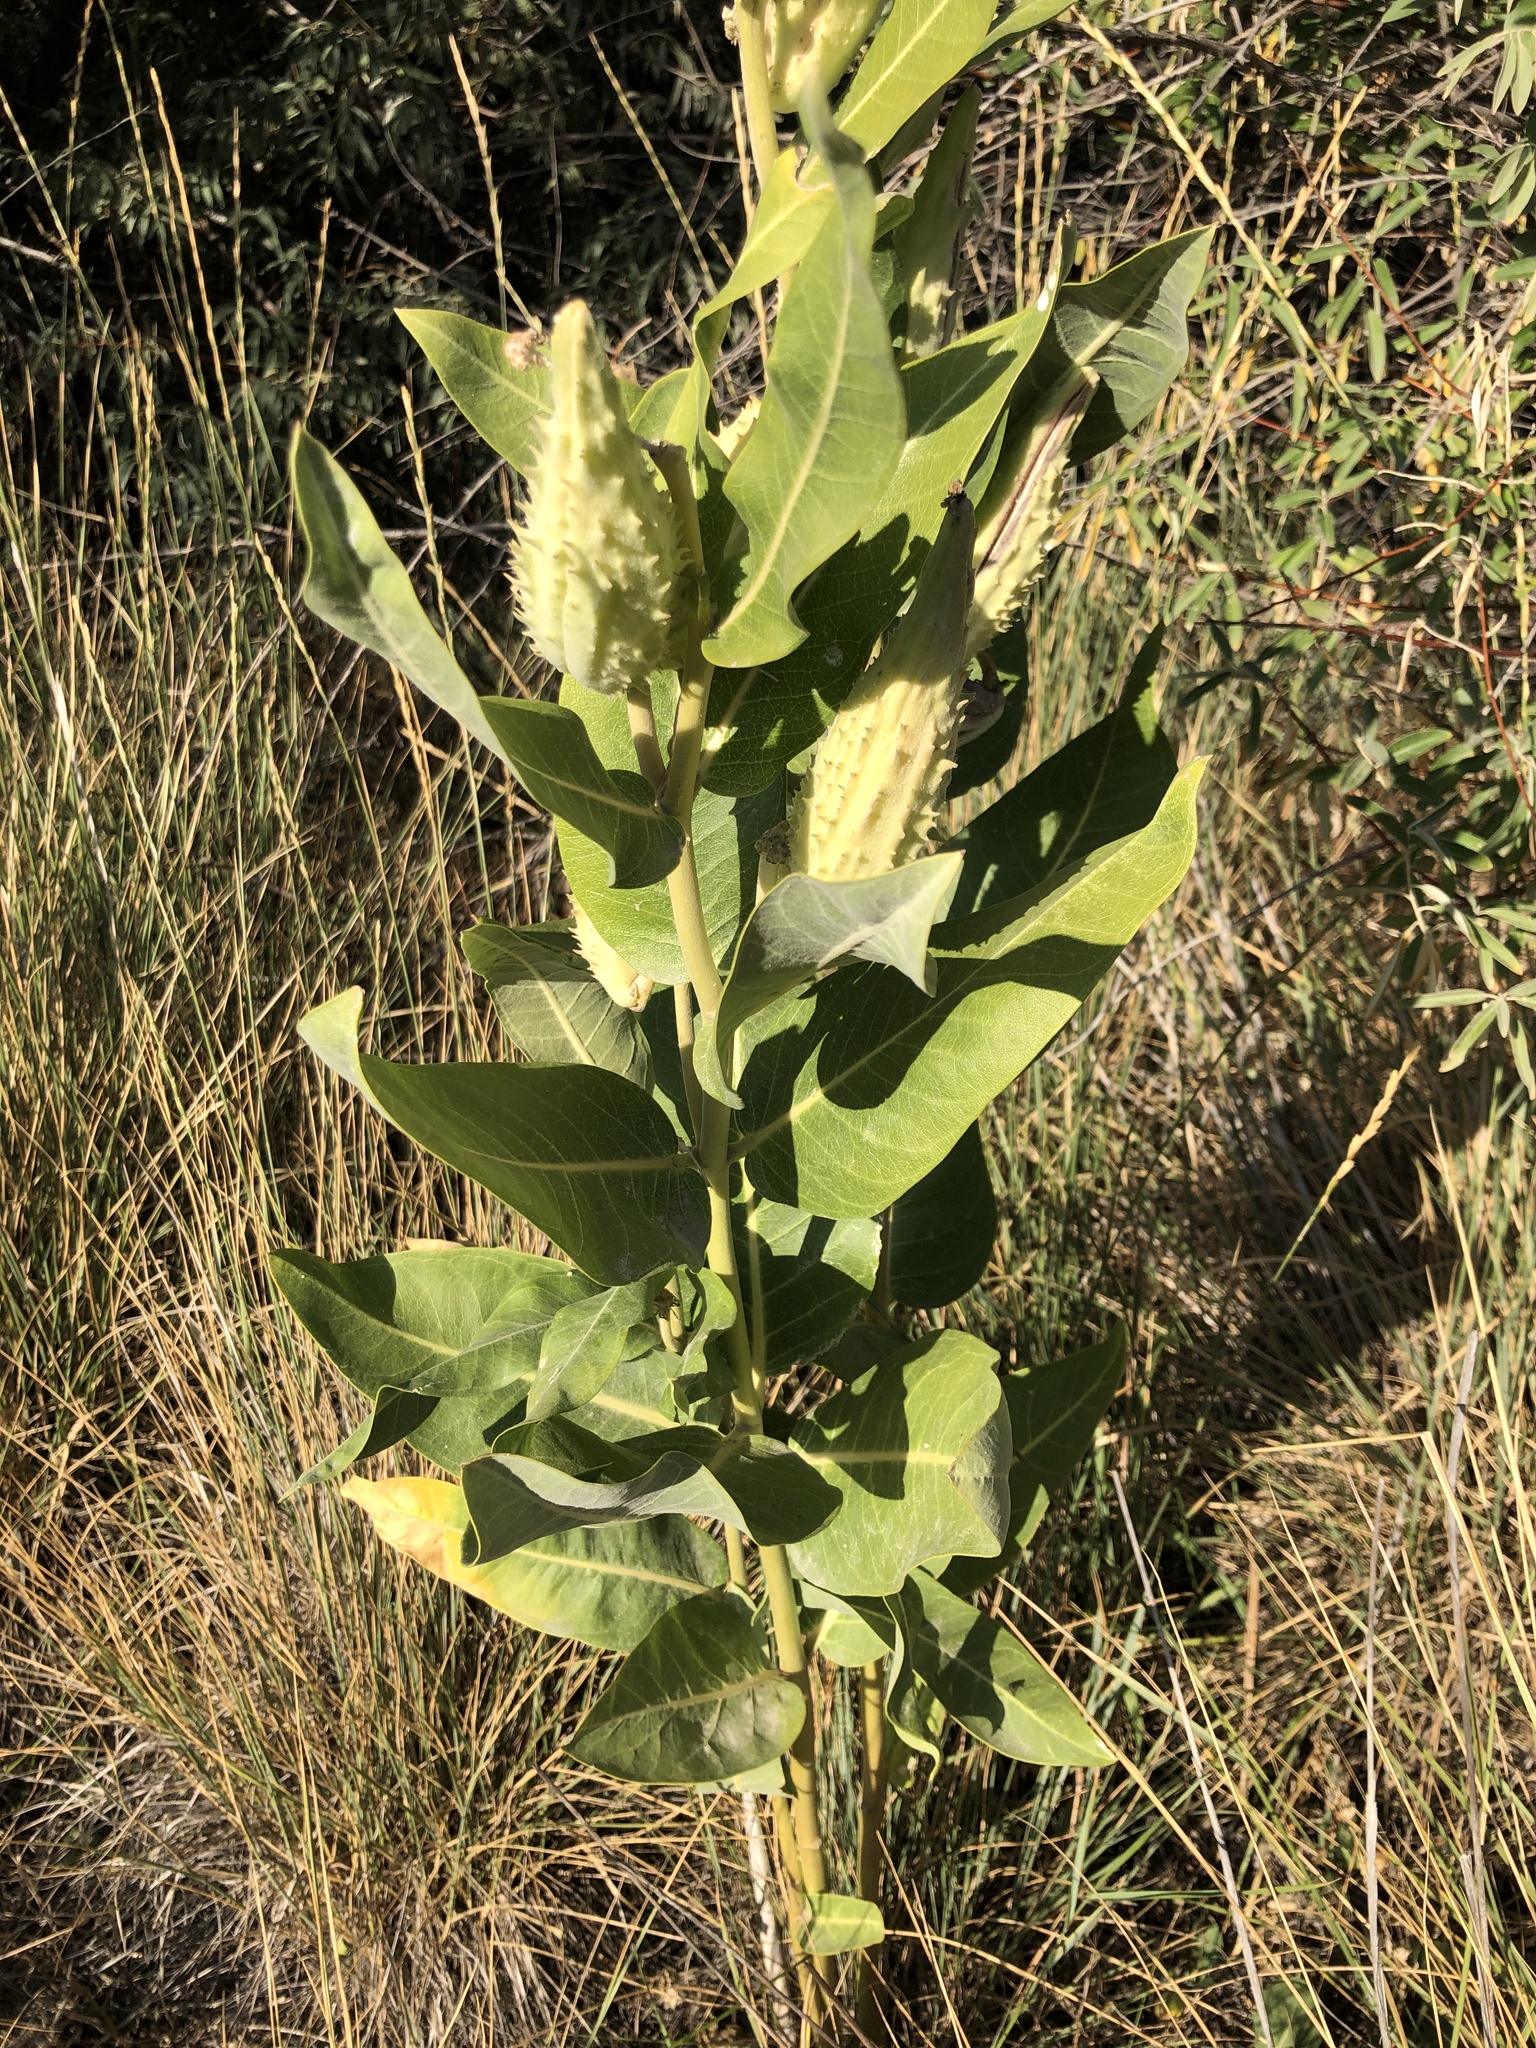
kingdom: Plantae
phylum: Tracheophyta
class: Magnoliopsida
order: Gentianales
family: Apocynaceae
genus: Asclepias
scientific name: Asclepias speciosa
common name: Showy milkweed
